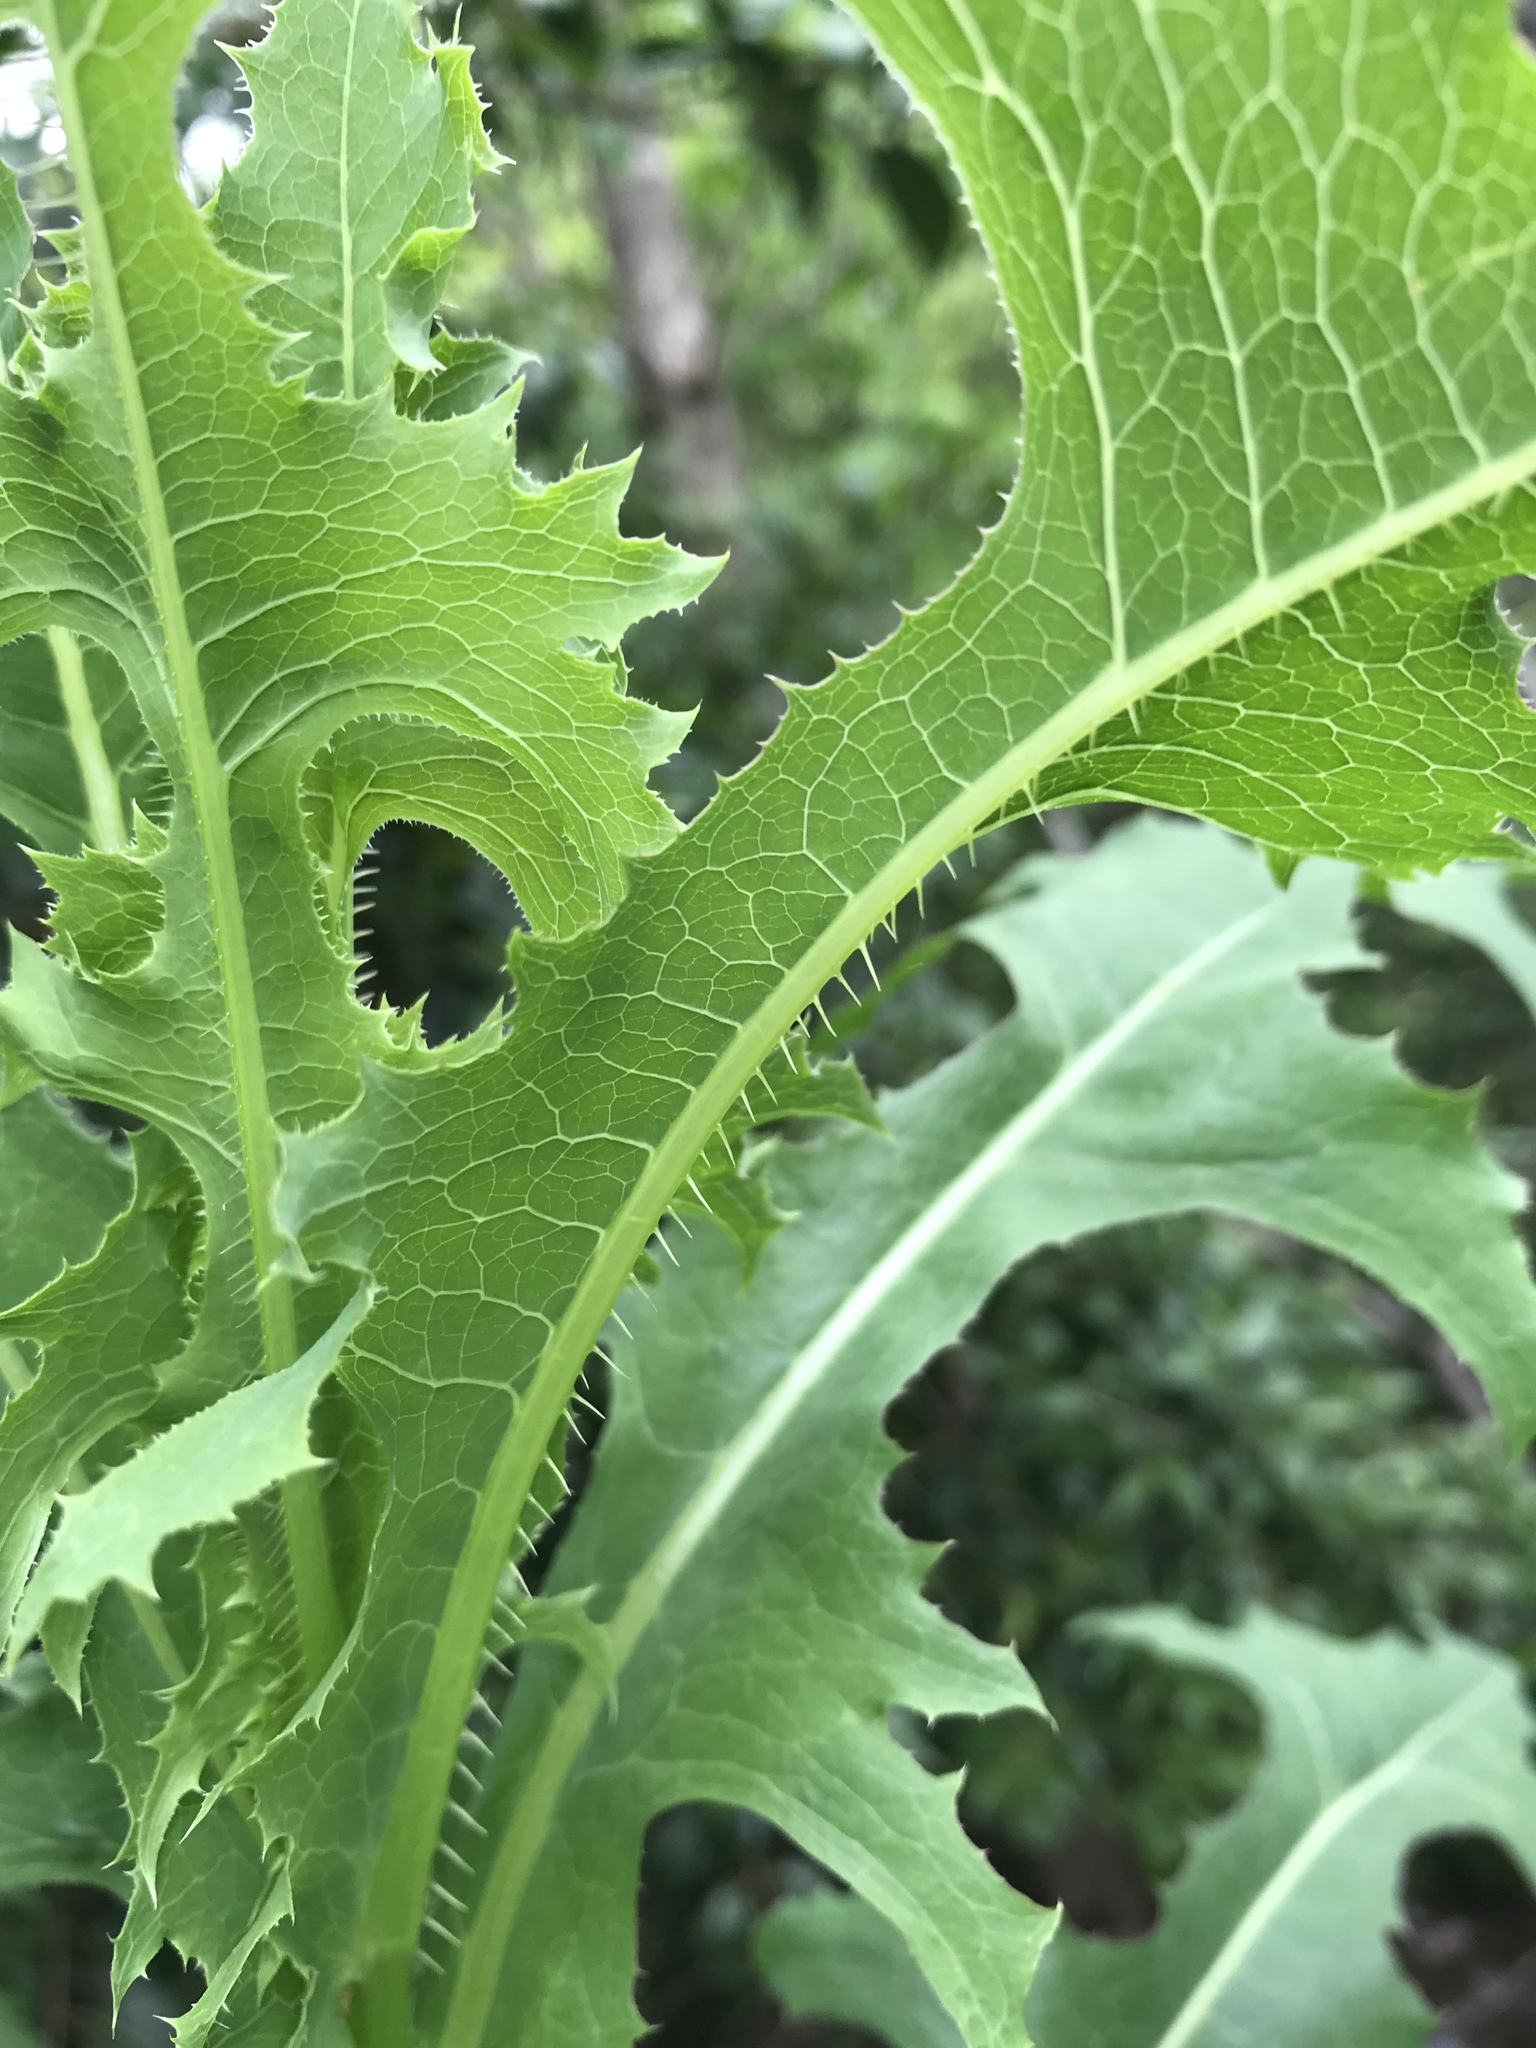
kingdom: Plantae
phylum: Tracheophyta
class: Magnoliopsida
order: Asterales
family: Asteraceae
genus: Lactuca
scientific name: Lactuca serriola
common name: Prickly lettuce
